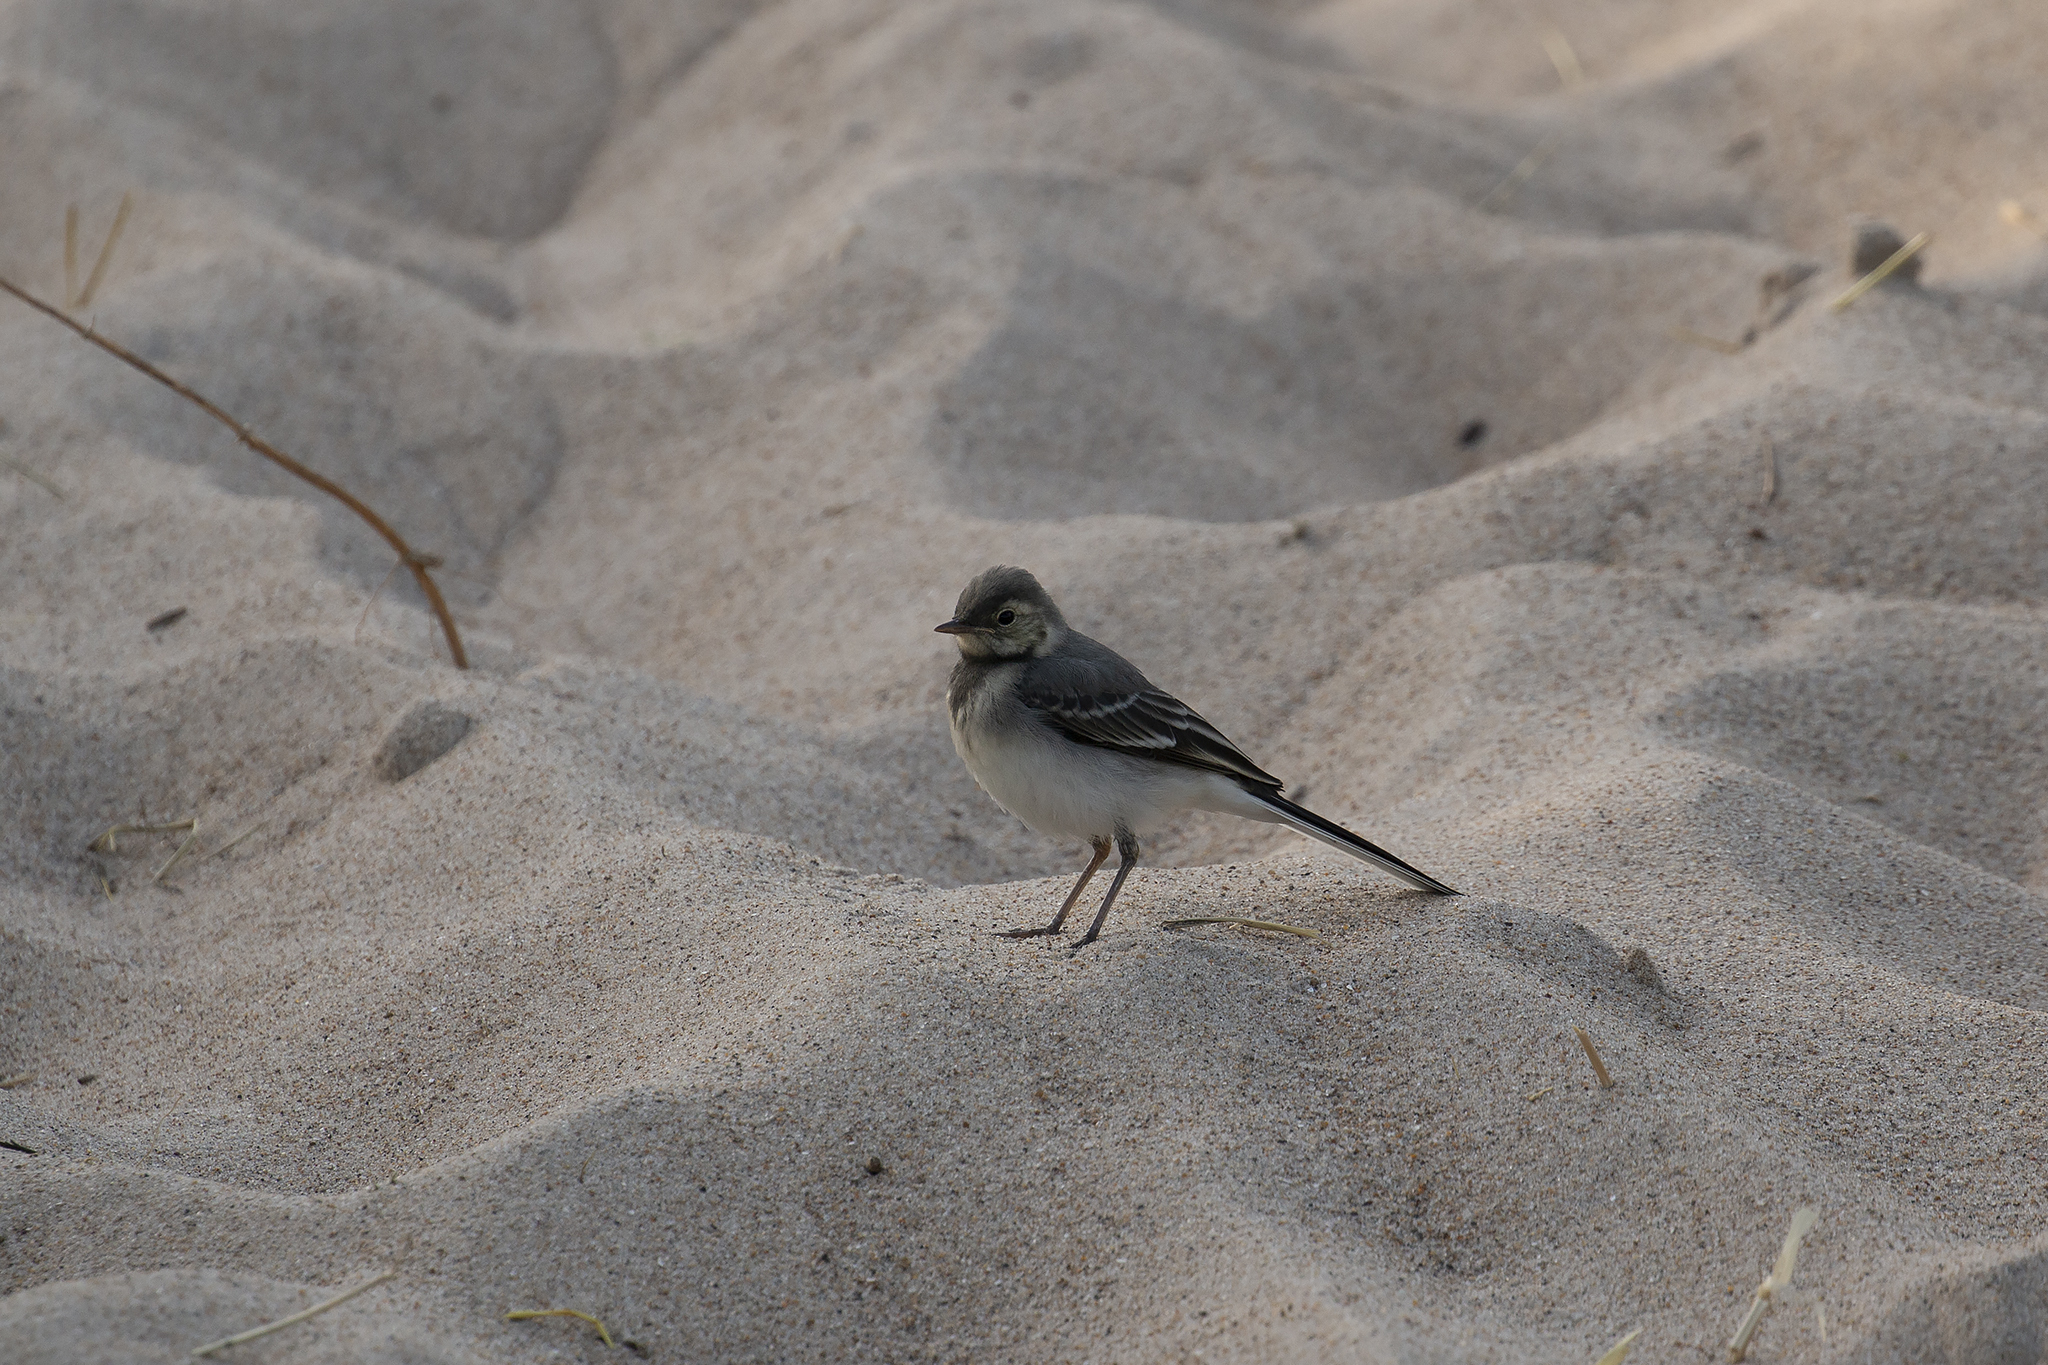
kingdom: Animalia
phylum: Chordata
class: Aves
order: Passeriformes
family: Motacillidae
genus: Motacilla
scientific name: Motacilla alba
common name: White wagtail
